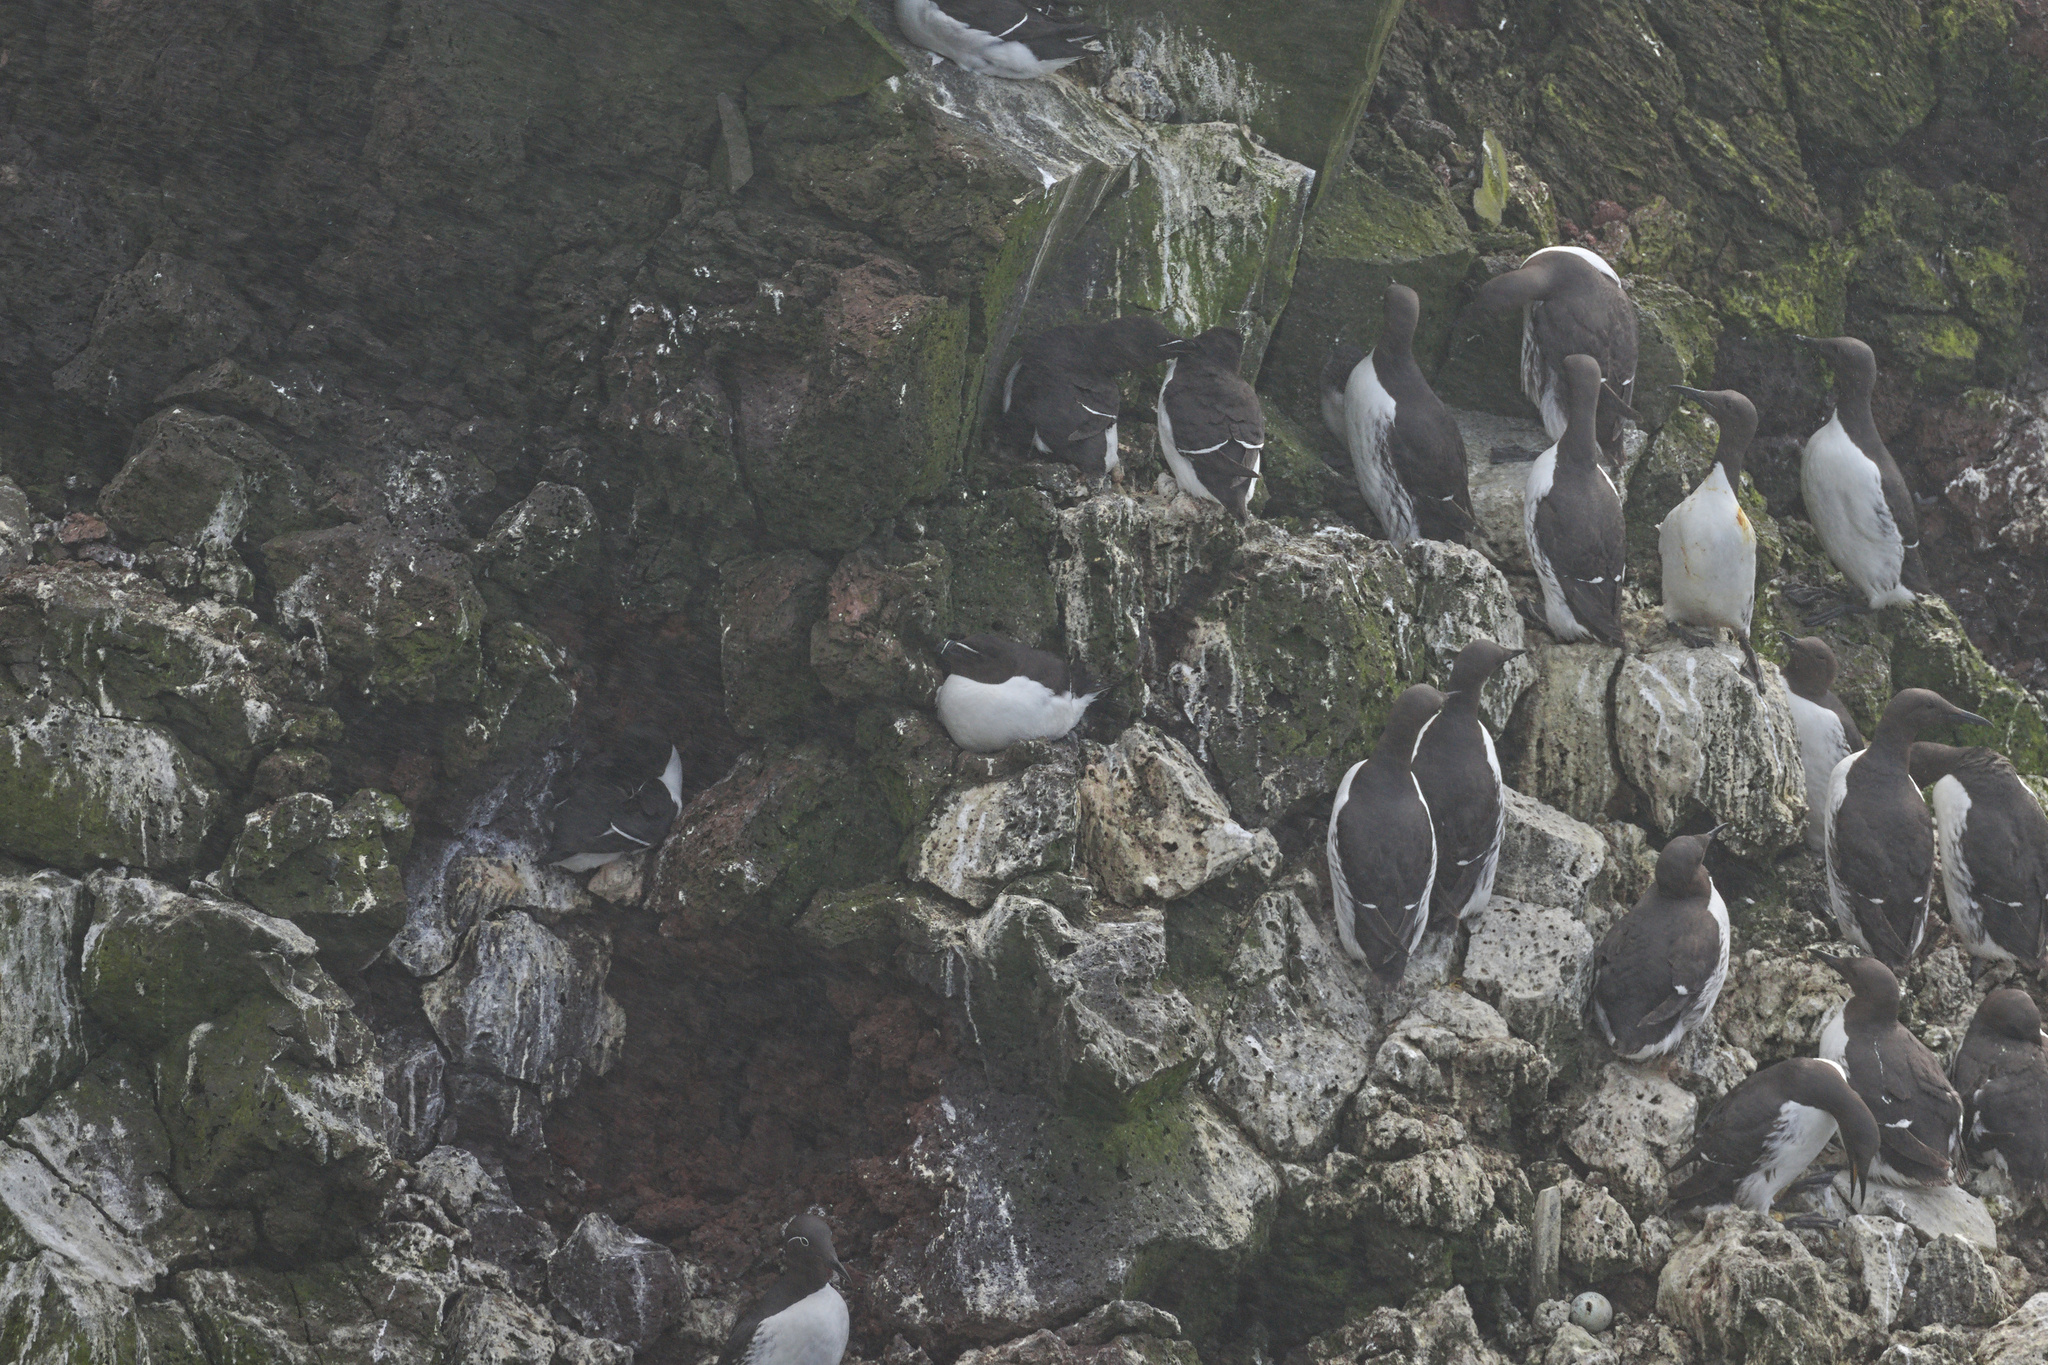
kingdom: Animalia
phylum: Chordata
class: Aves
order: Charadriiformes
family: Alcidae
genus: Alca
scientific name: Alca torda
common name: Razorbill
